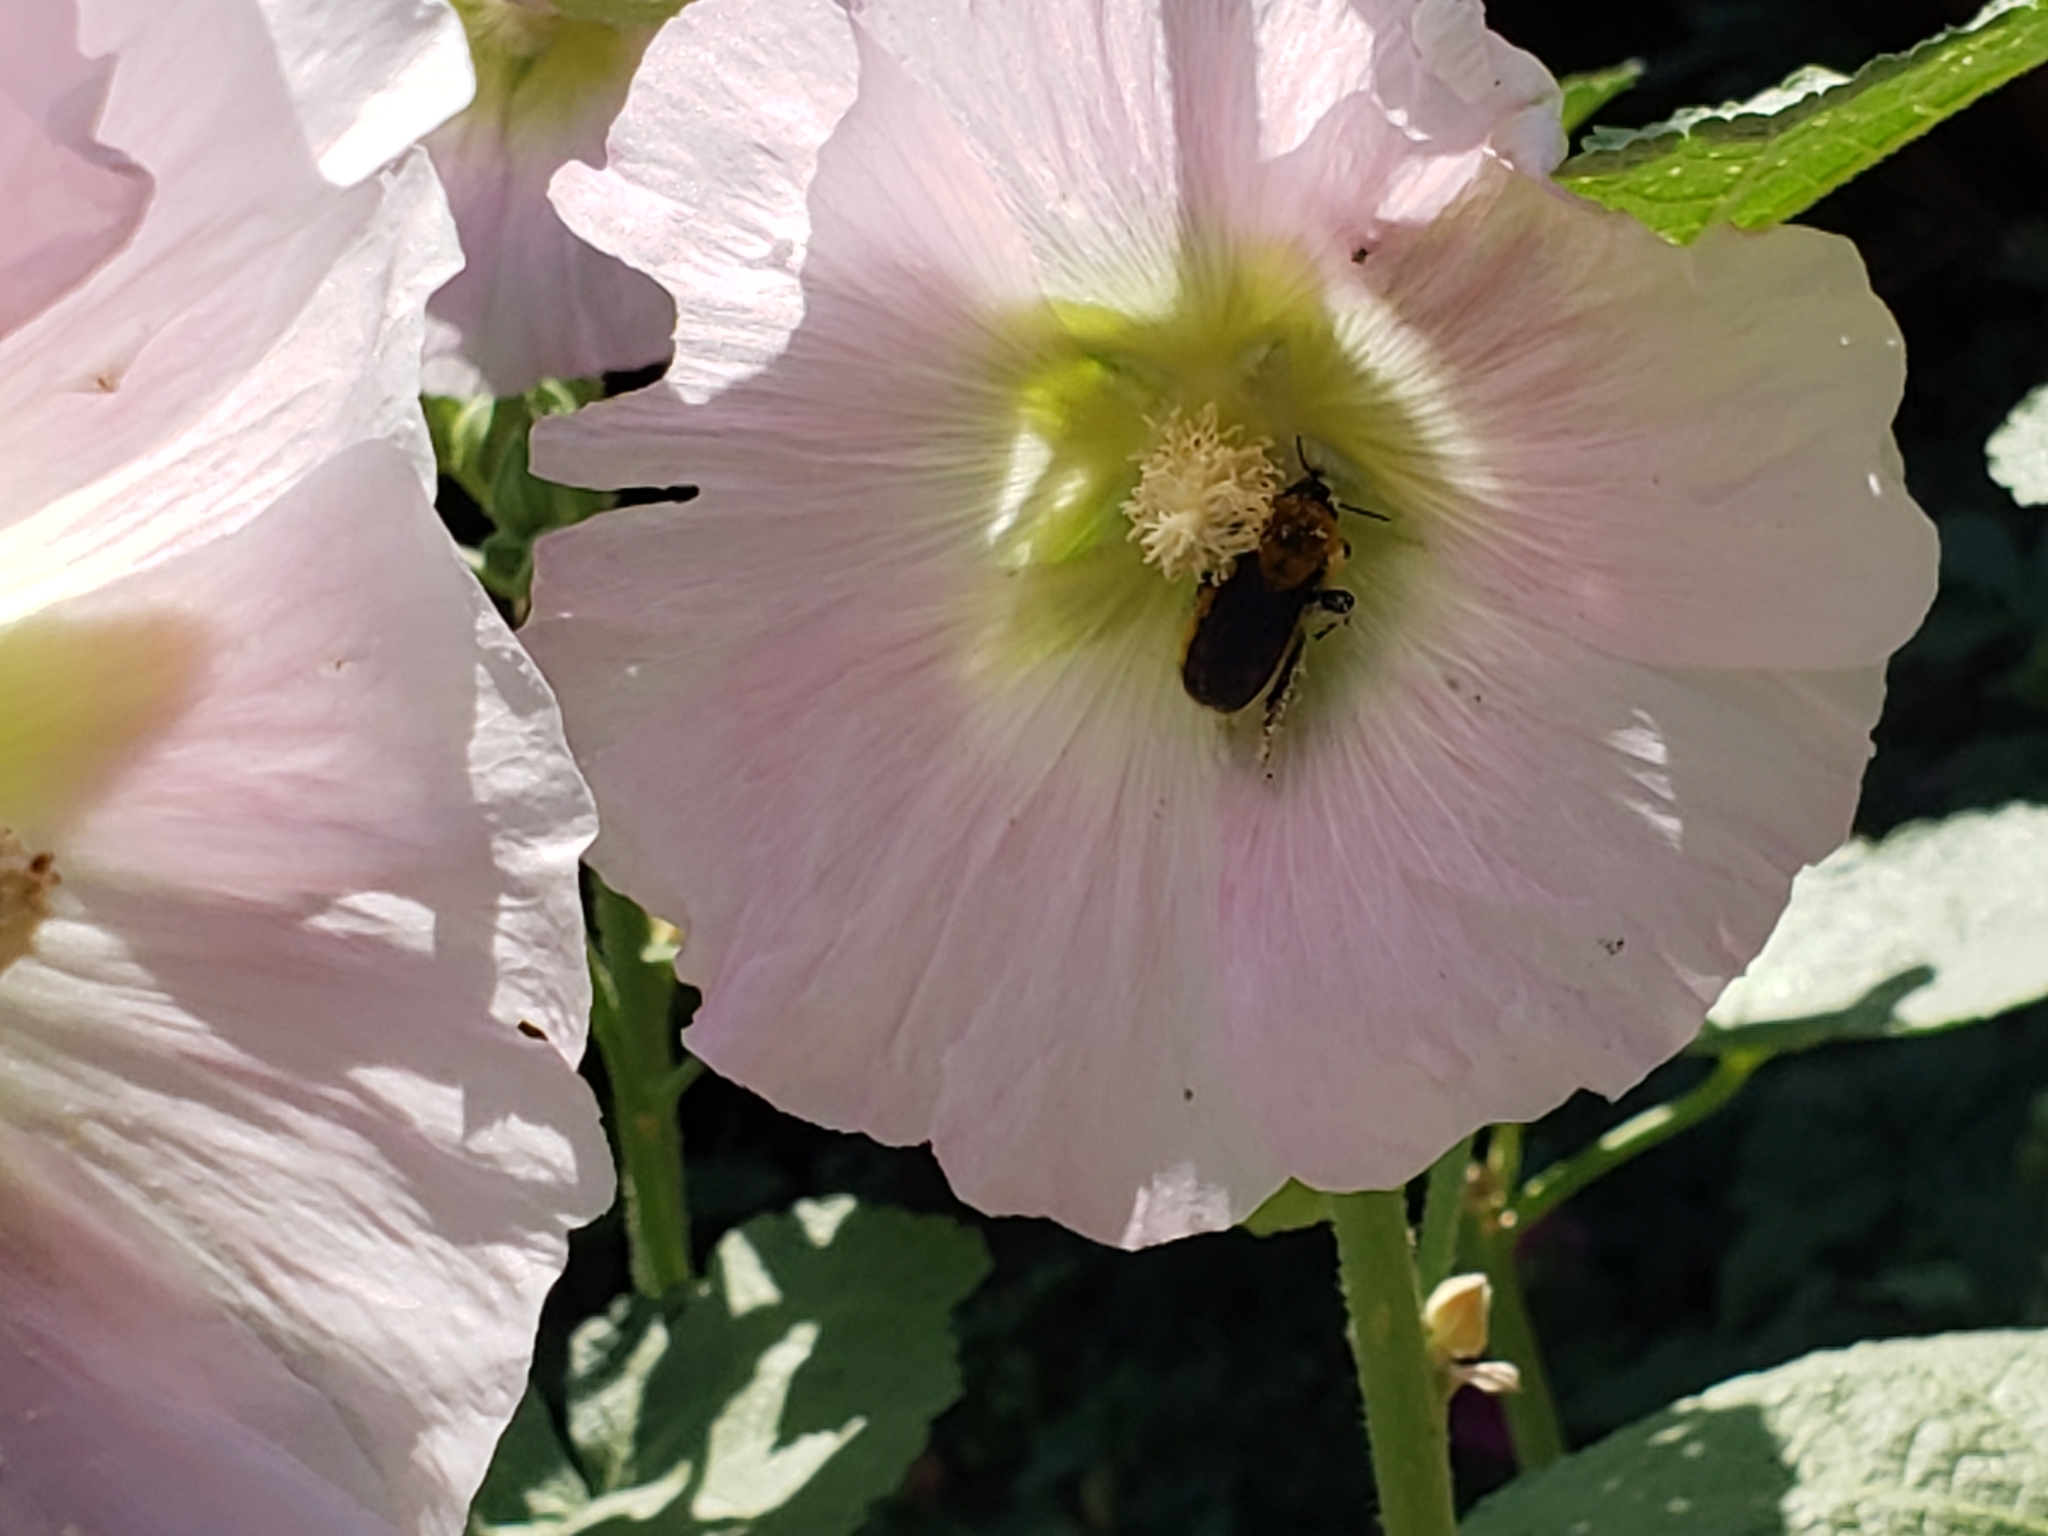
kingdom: Animalia
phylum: Arthropoda
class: Insecta
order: Hymenoptera
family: Apidae
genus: Bombus
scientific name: Bombus fervidus
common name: Yellow bumble bee
